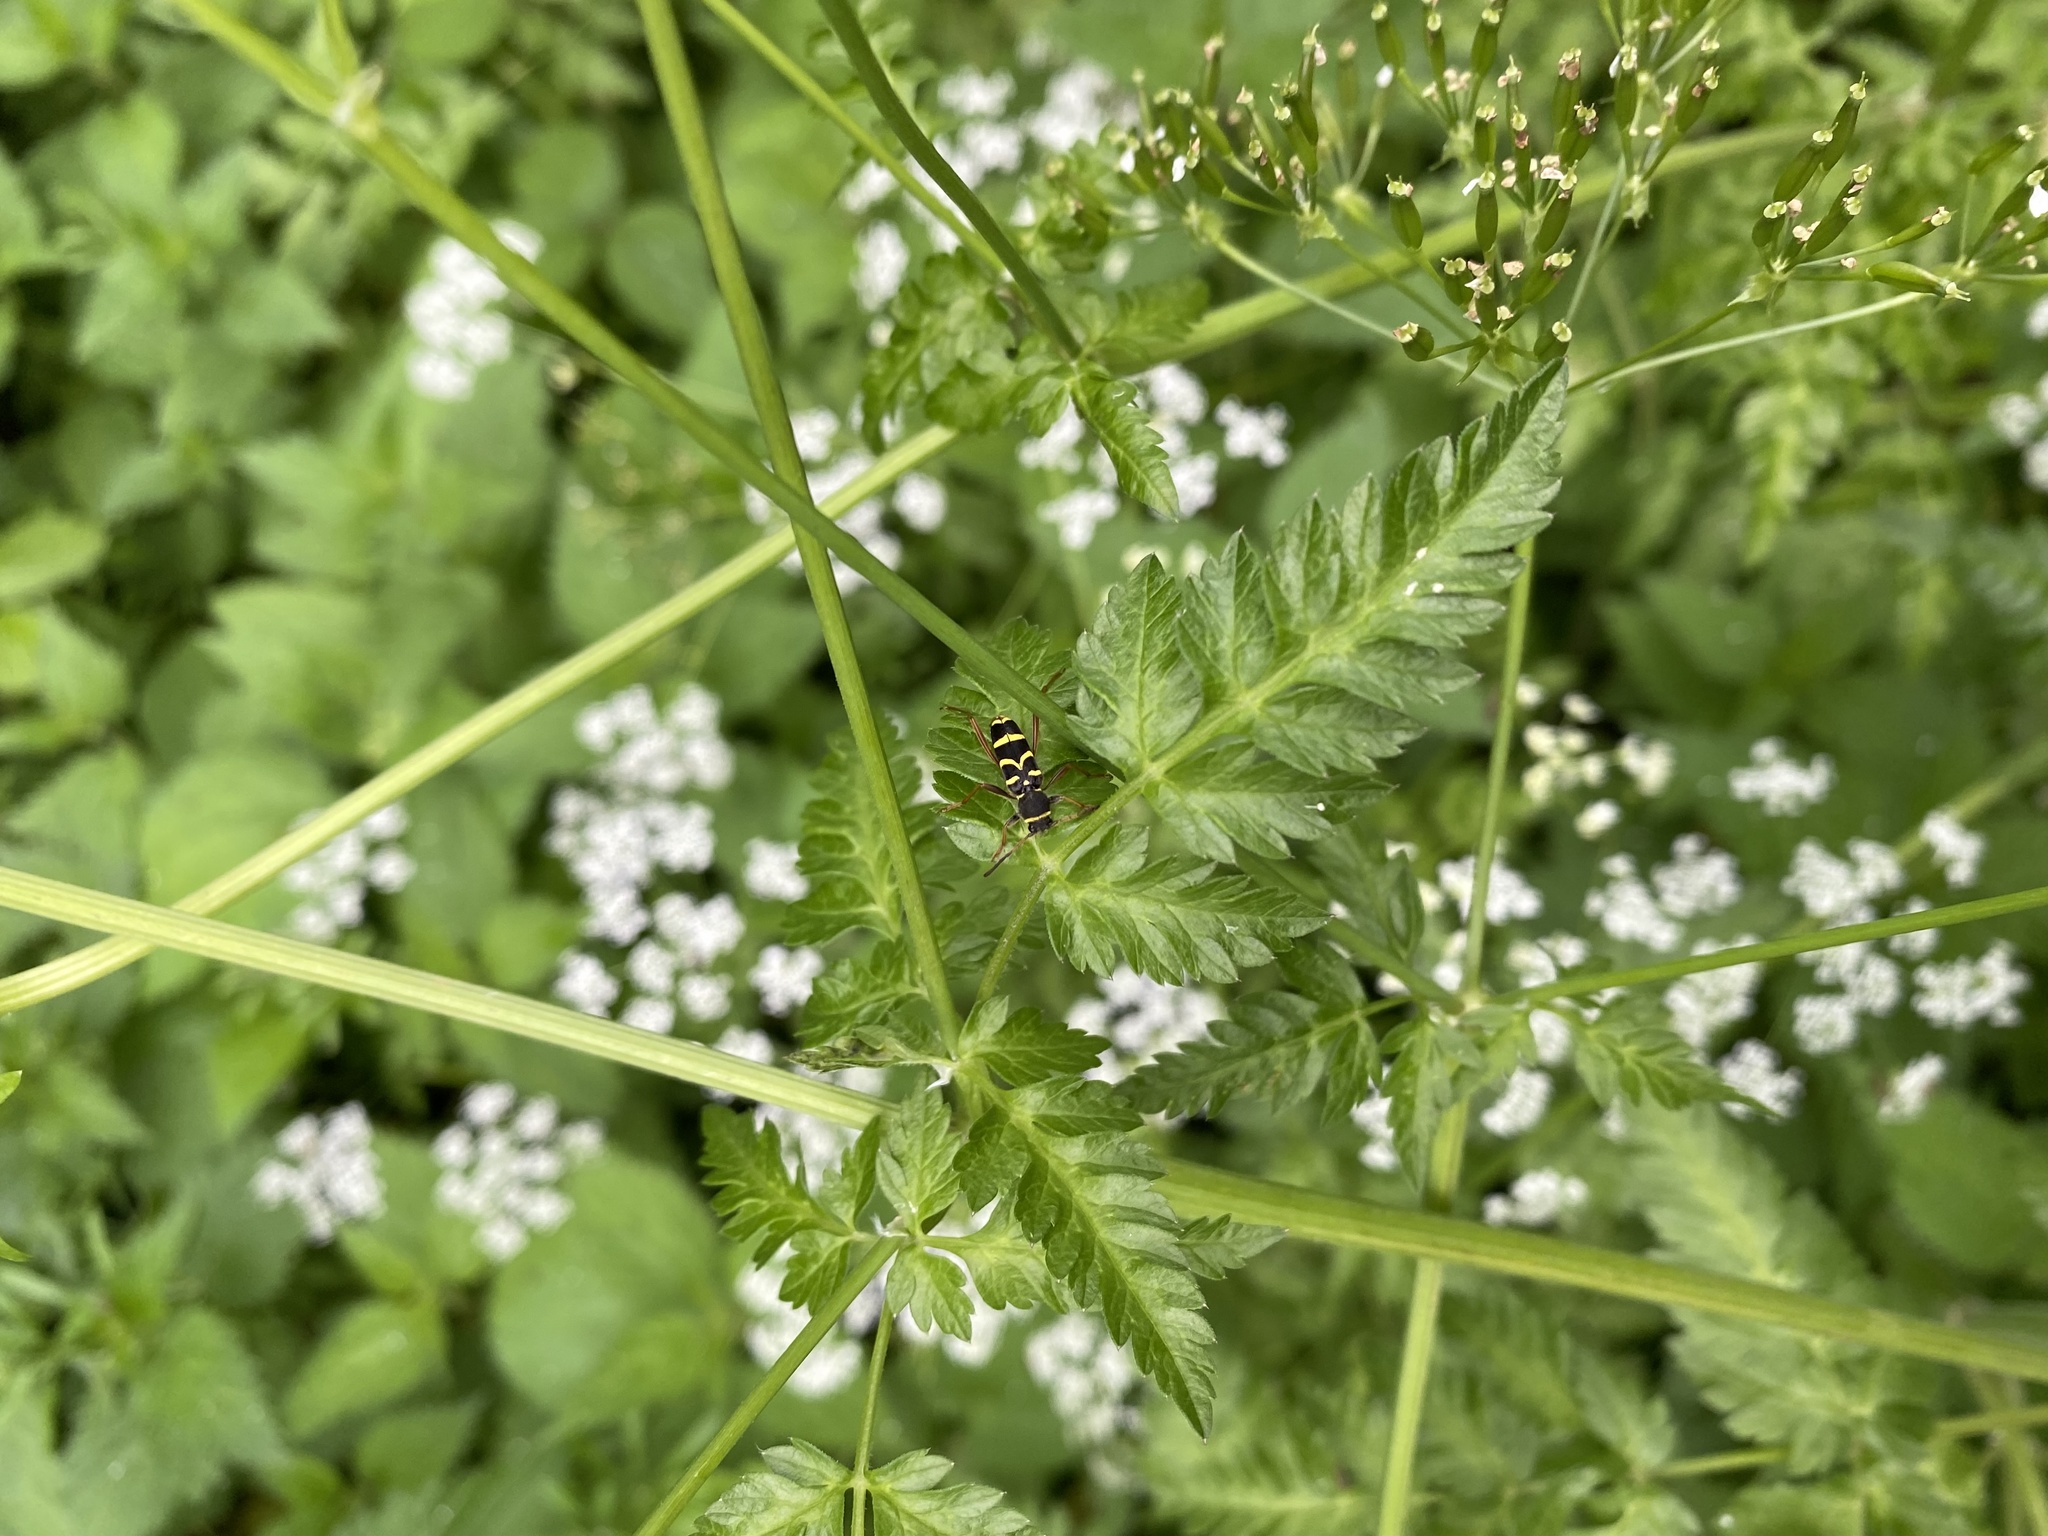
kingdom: Animalia
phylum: Arthropoda
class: Insecta
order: Coleoptera
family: Cerambycidae
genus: Clytus
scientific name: Clytus arietis
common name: Wasp beetle
